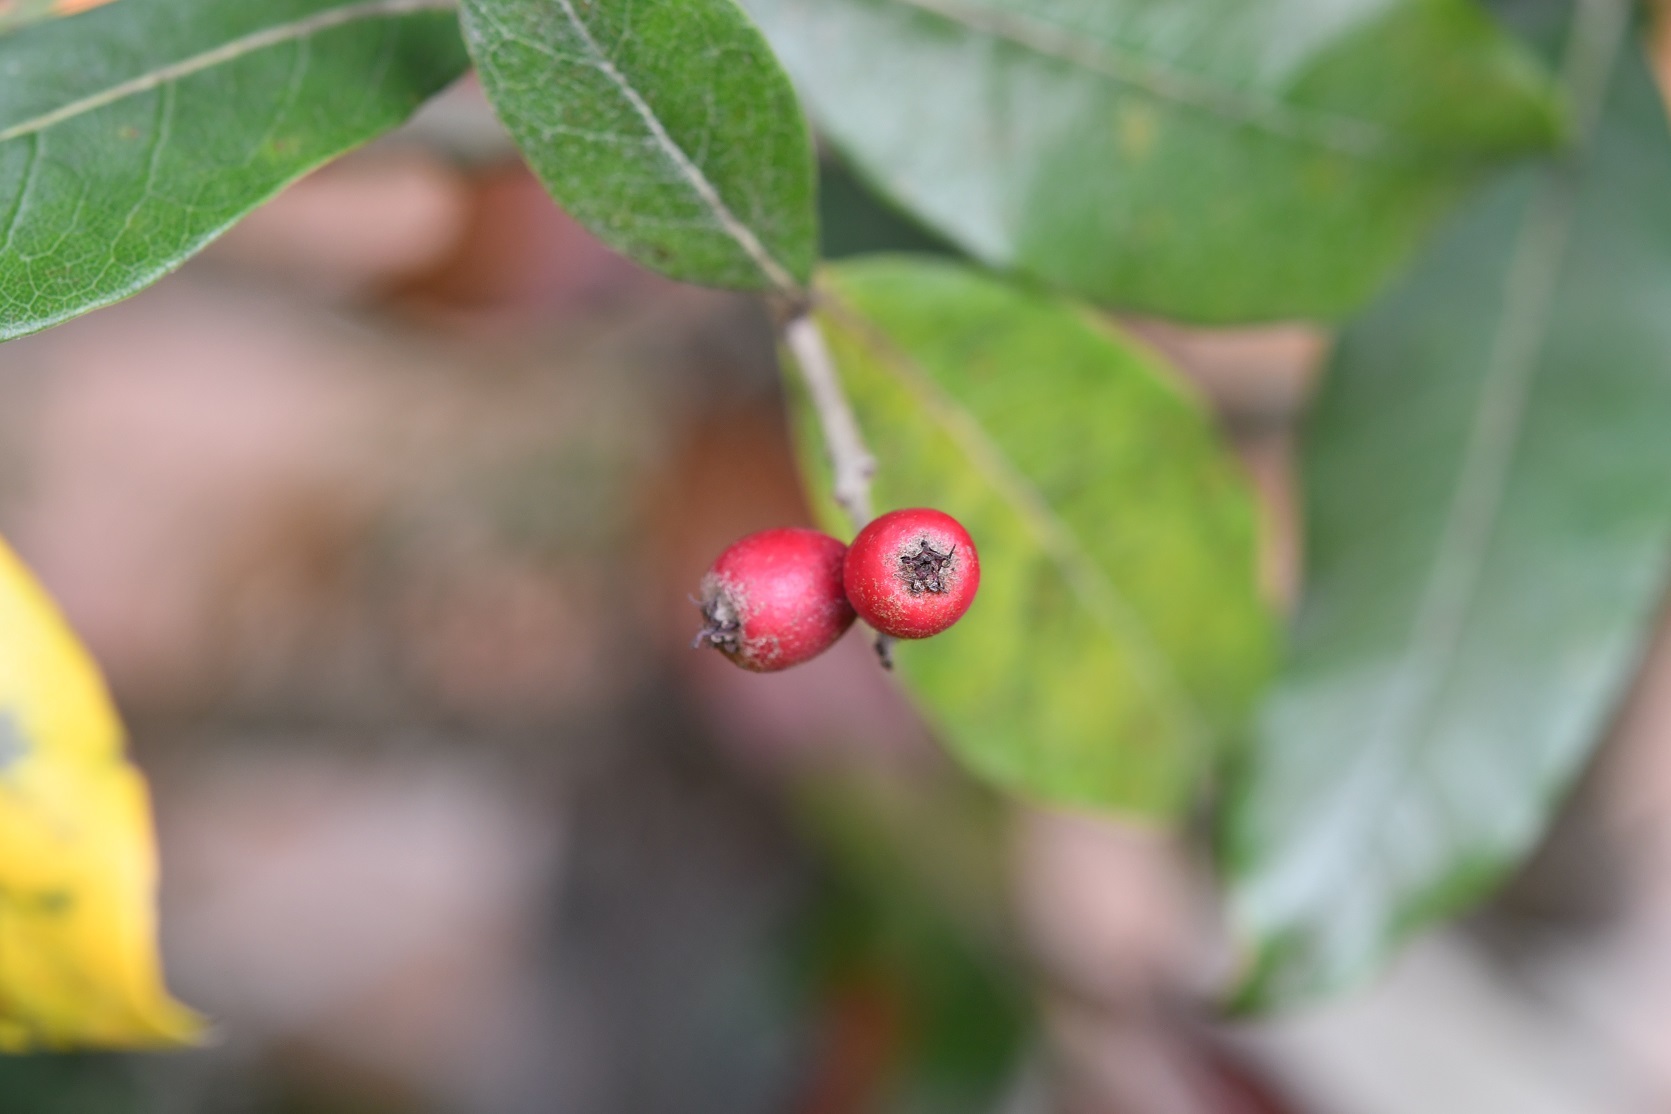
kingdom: Plantae
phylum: Tracheophyta
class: Magnoliopsida
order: Rosales
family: Rosaceae
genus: Phippsiomeles
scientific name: Phippsiomeles matudae
